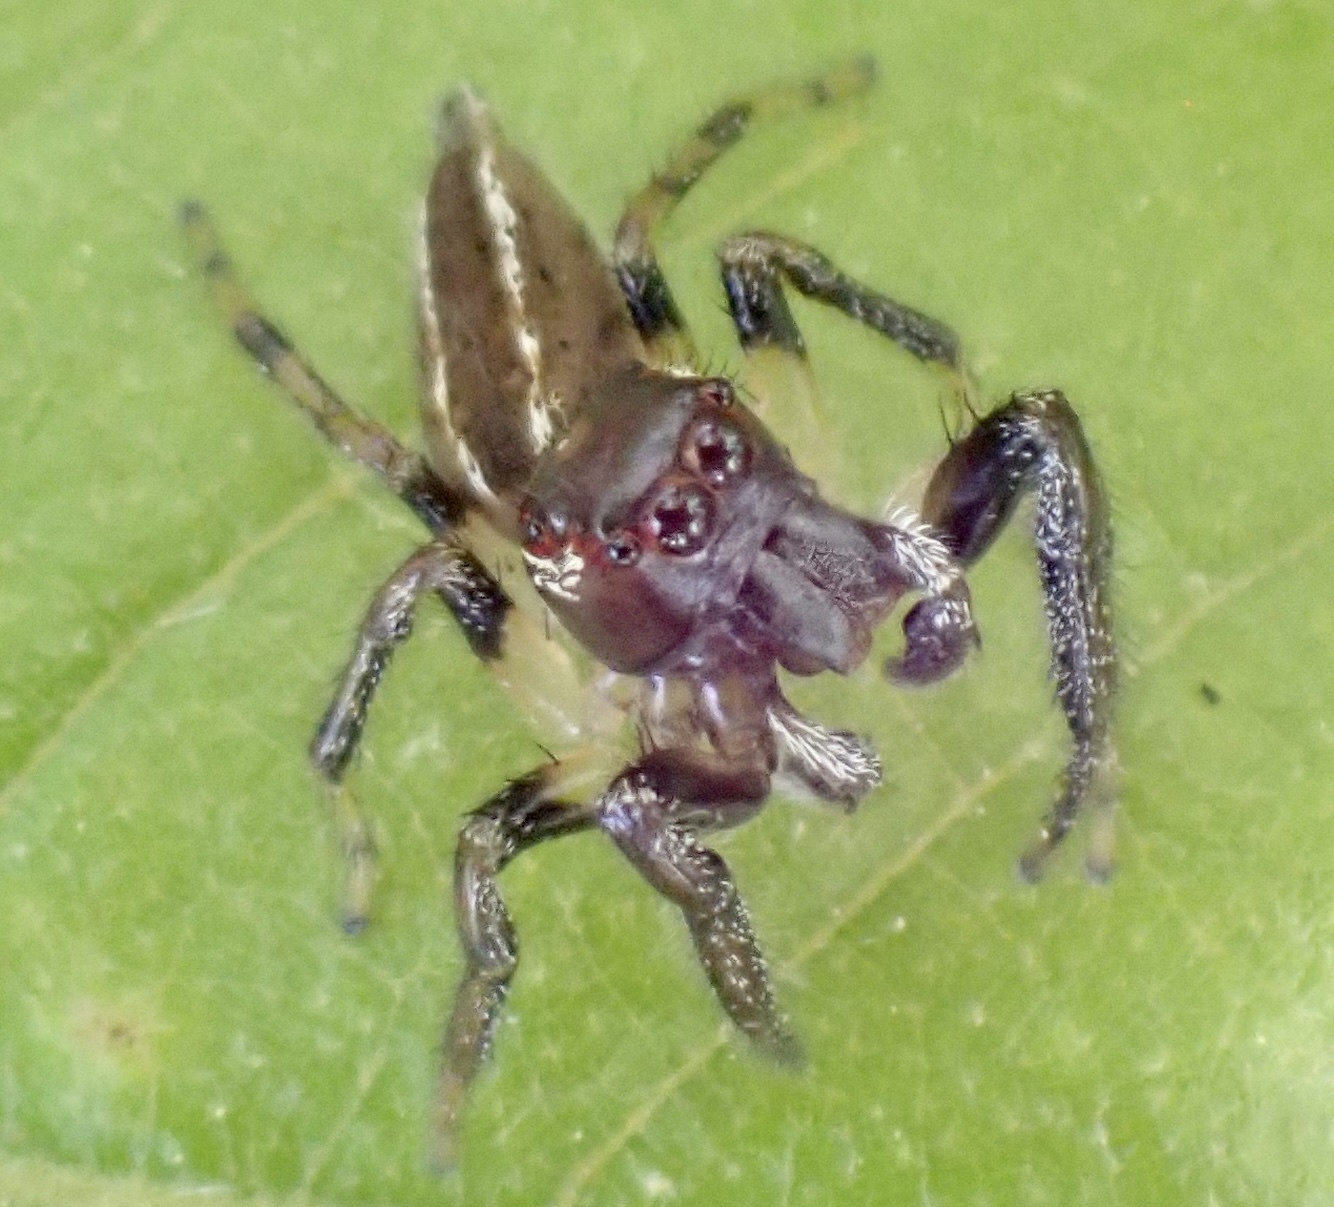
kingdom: Animalia
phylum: Arthropoda
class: Arachnida
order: Araneae
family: Salticidae
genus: Colonus
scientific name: Colonus sylvanus
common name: Jumping spiders
